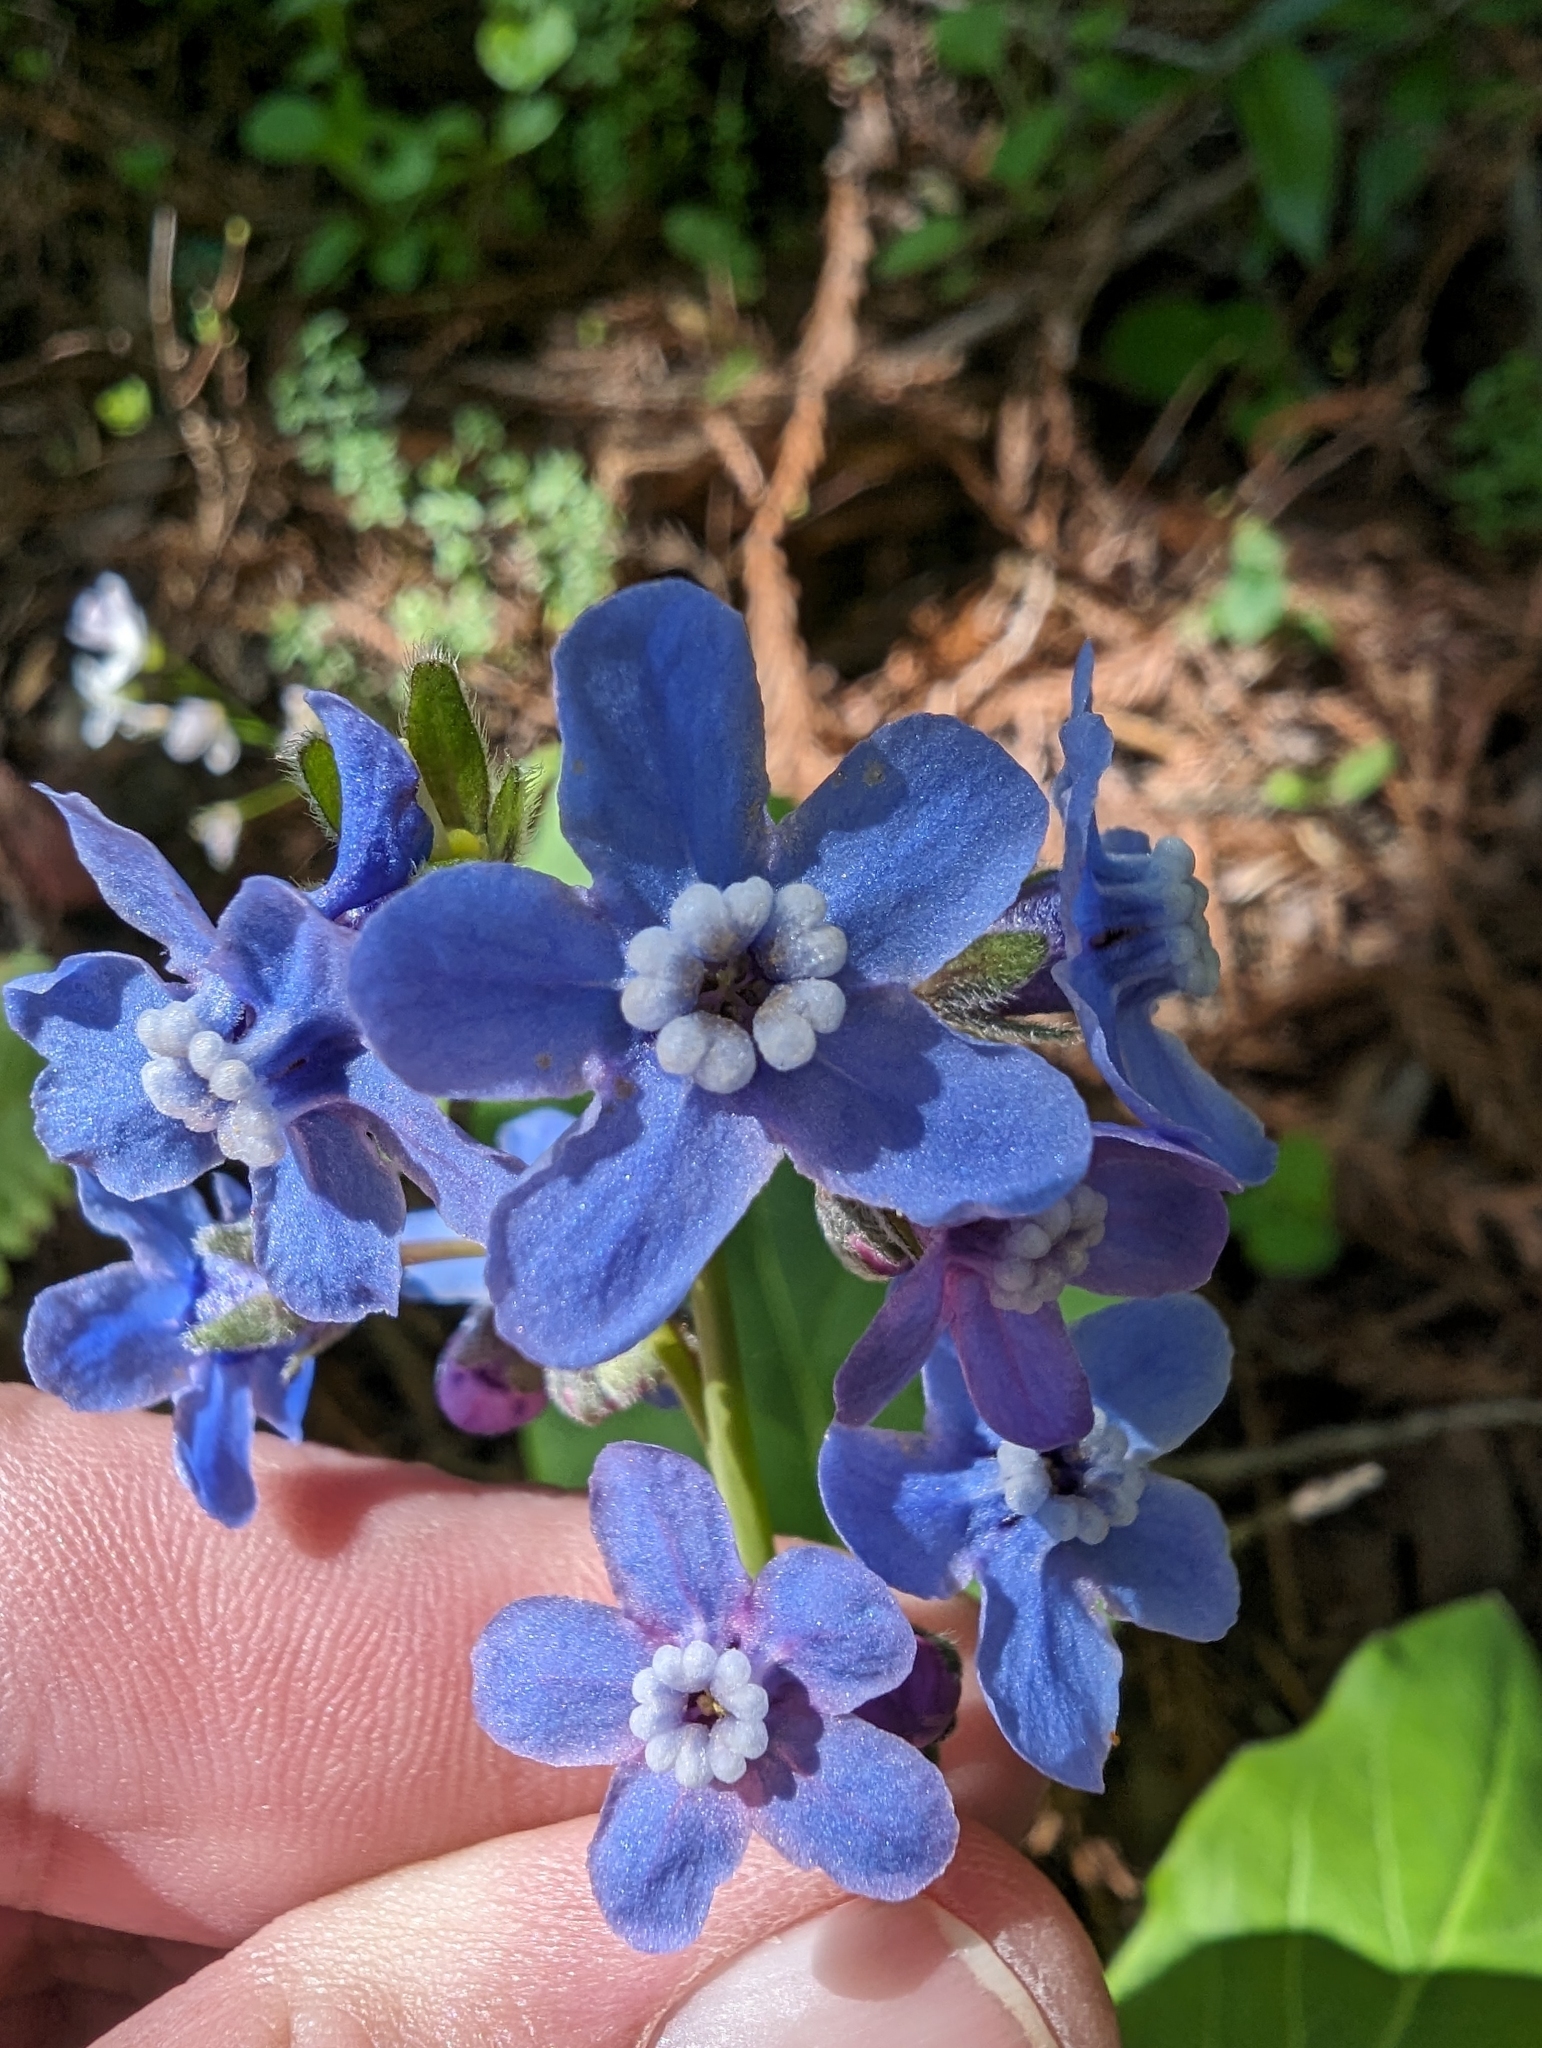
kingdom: Plantae
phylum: Tracheophyta
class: Magnoliopsida
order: Boraginales
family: Boraginaceae
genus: Adelinia
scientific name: Adelinia grande
